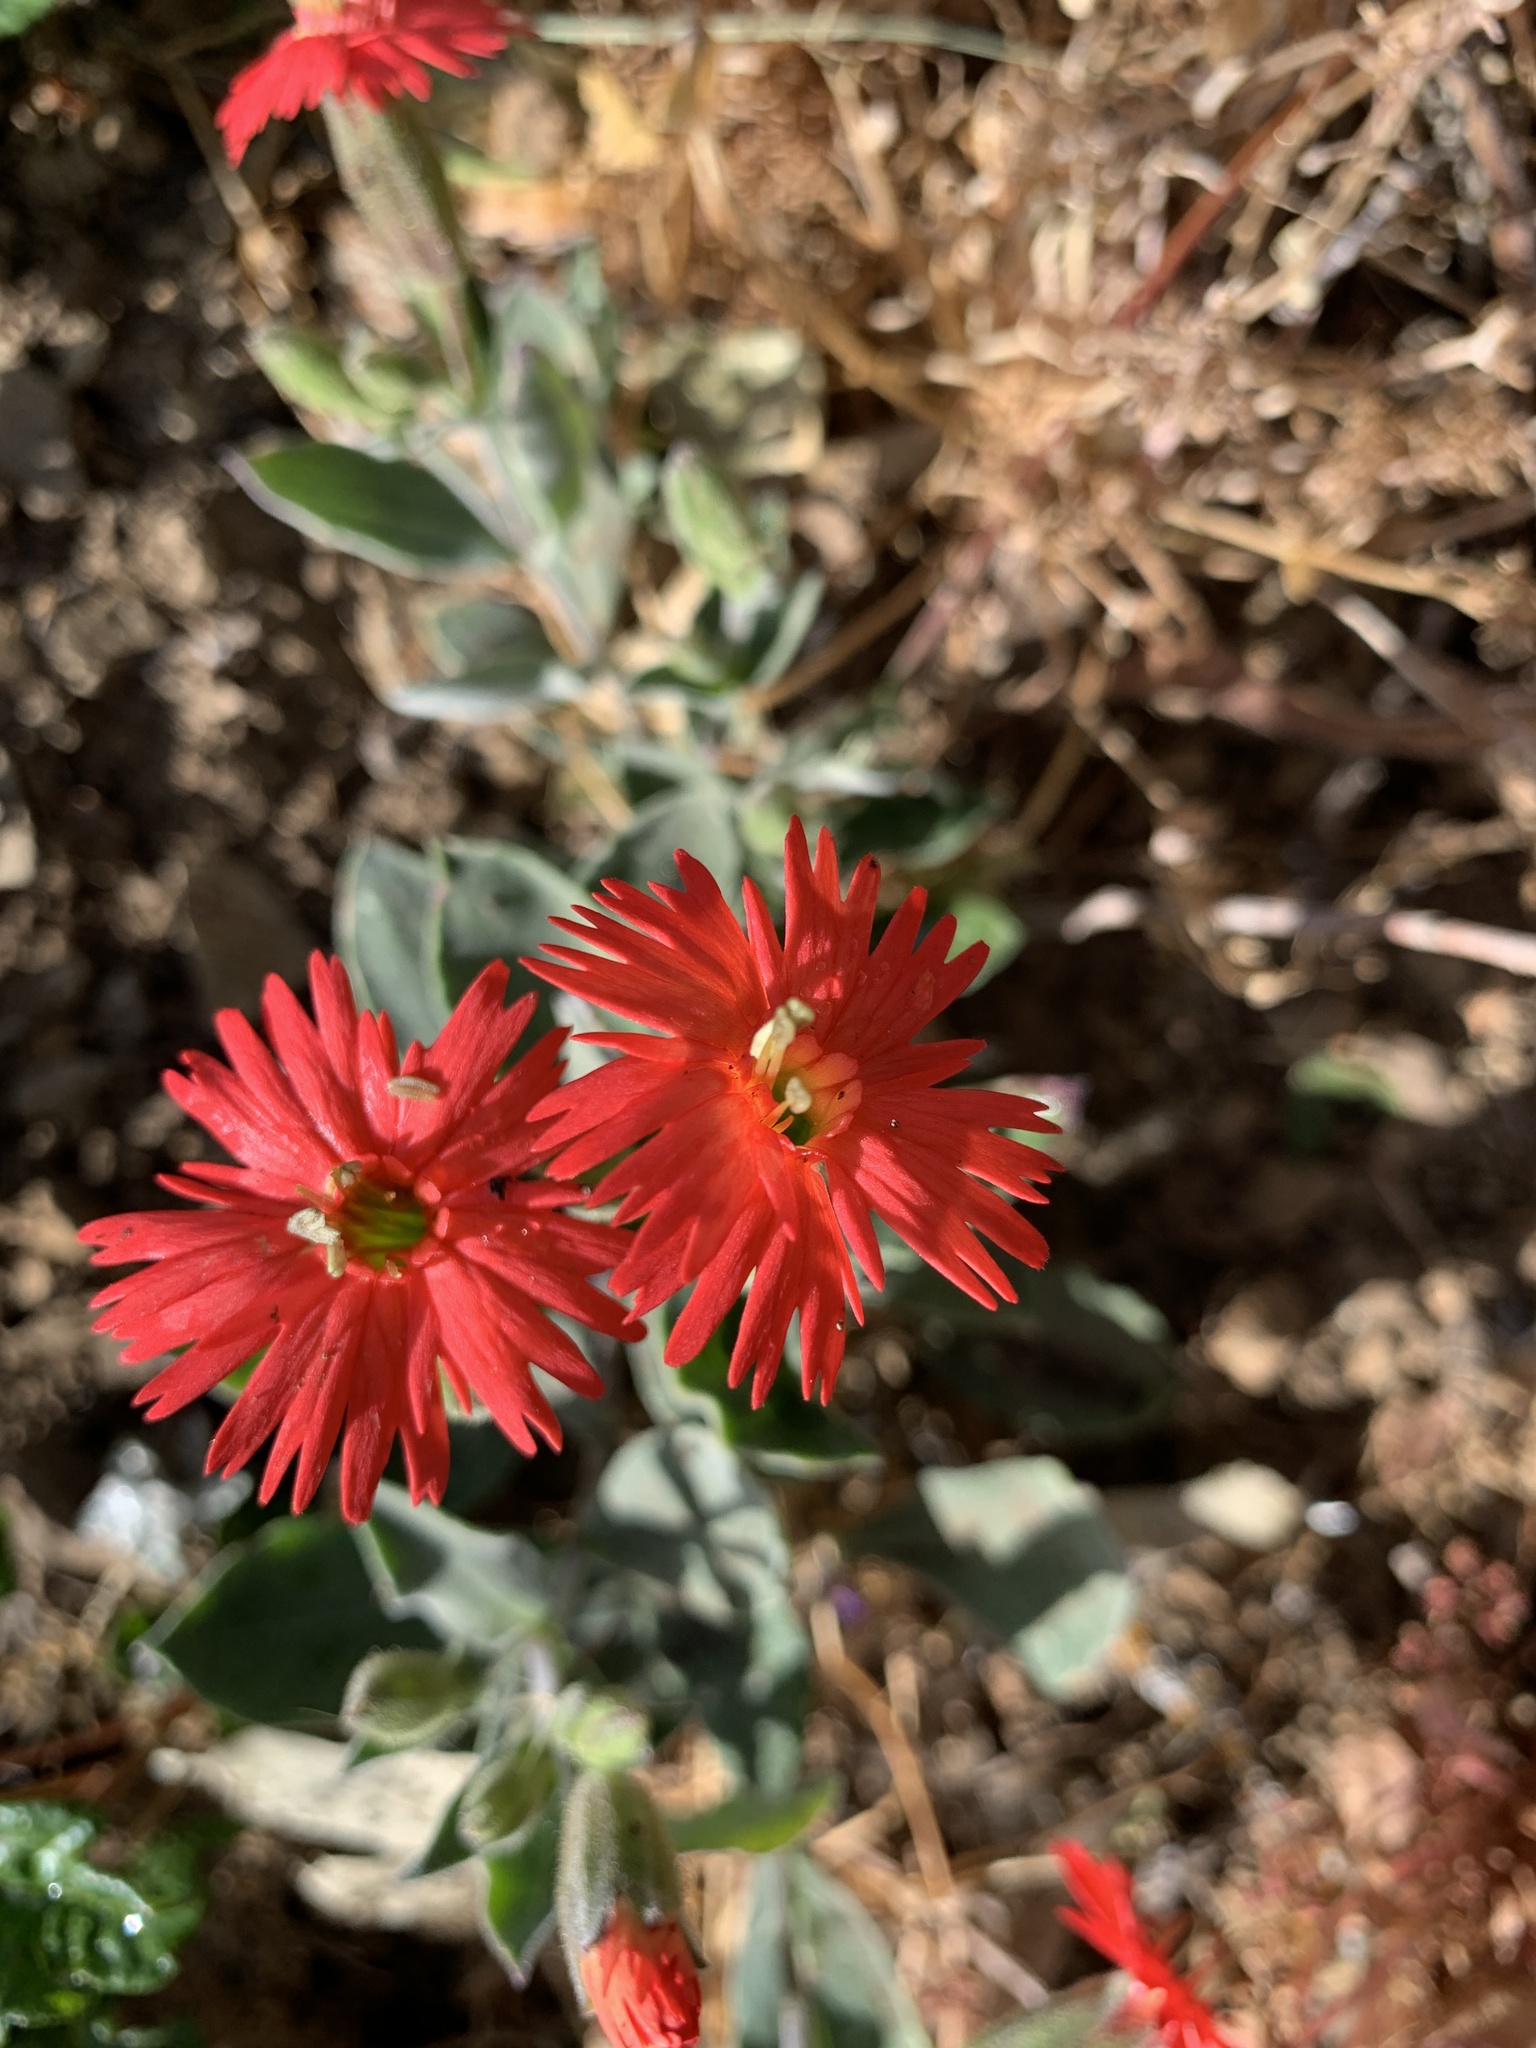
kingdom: Plantae
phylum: Tracheophyta
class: Magnoliopsida
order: Caryophyllales
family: Caryophyllaceae
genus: Silene
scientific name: Silene laciniata
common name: Indian-pink
